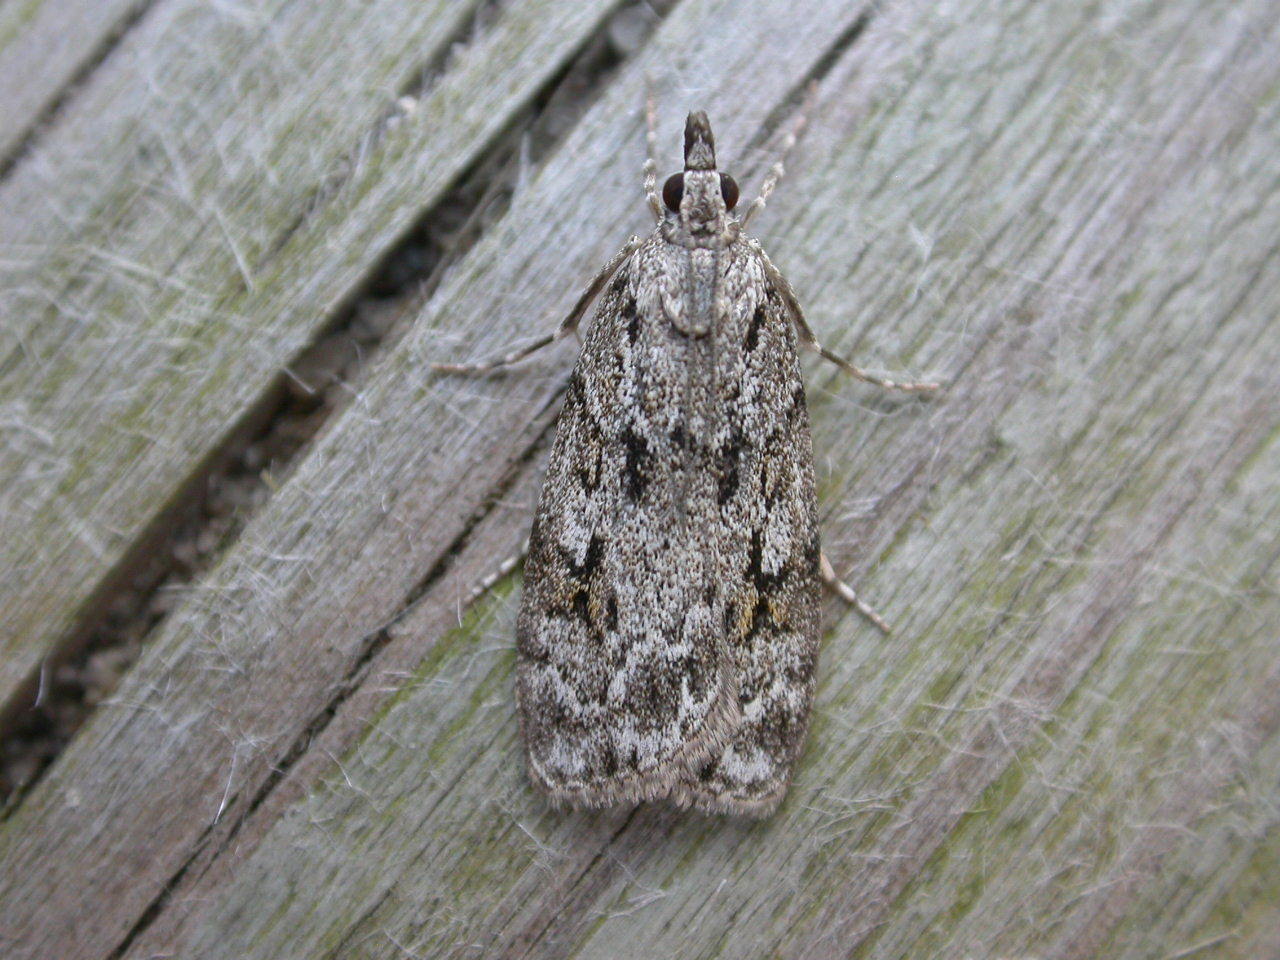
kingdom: Animalia
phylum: Arthropoda
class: Insecta
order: Lepidoptera
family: Crambidae
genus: Scoparia
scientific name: Scoparia ambigualis
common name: Common grey
